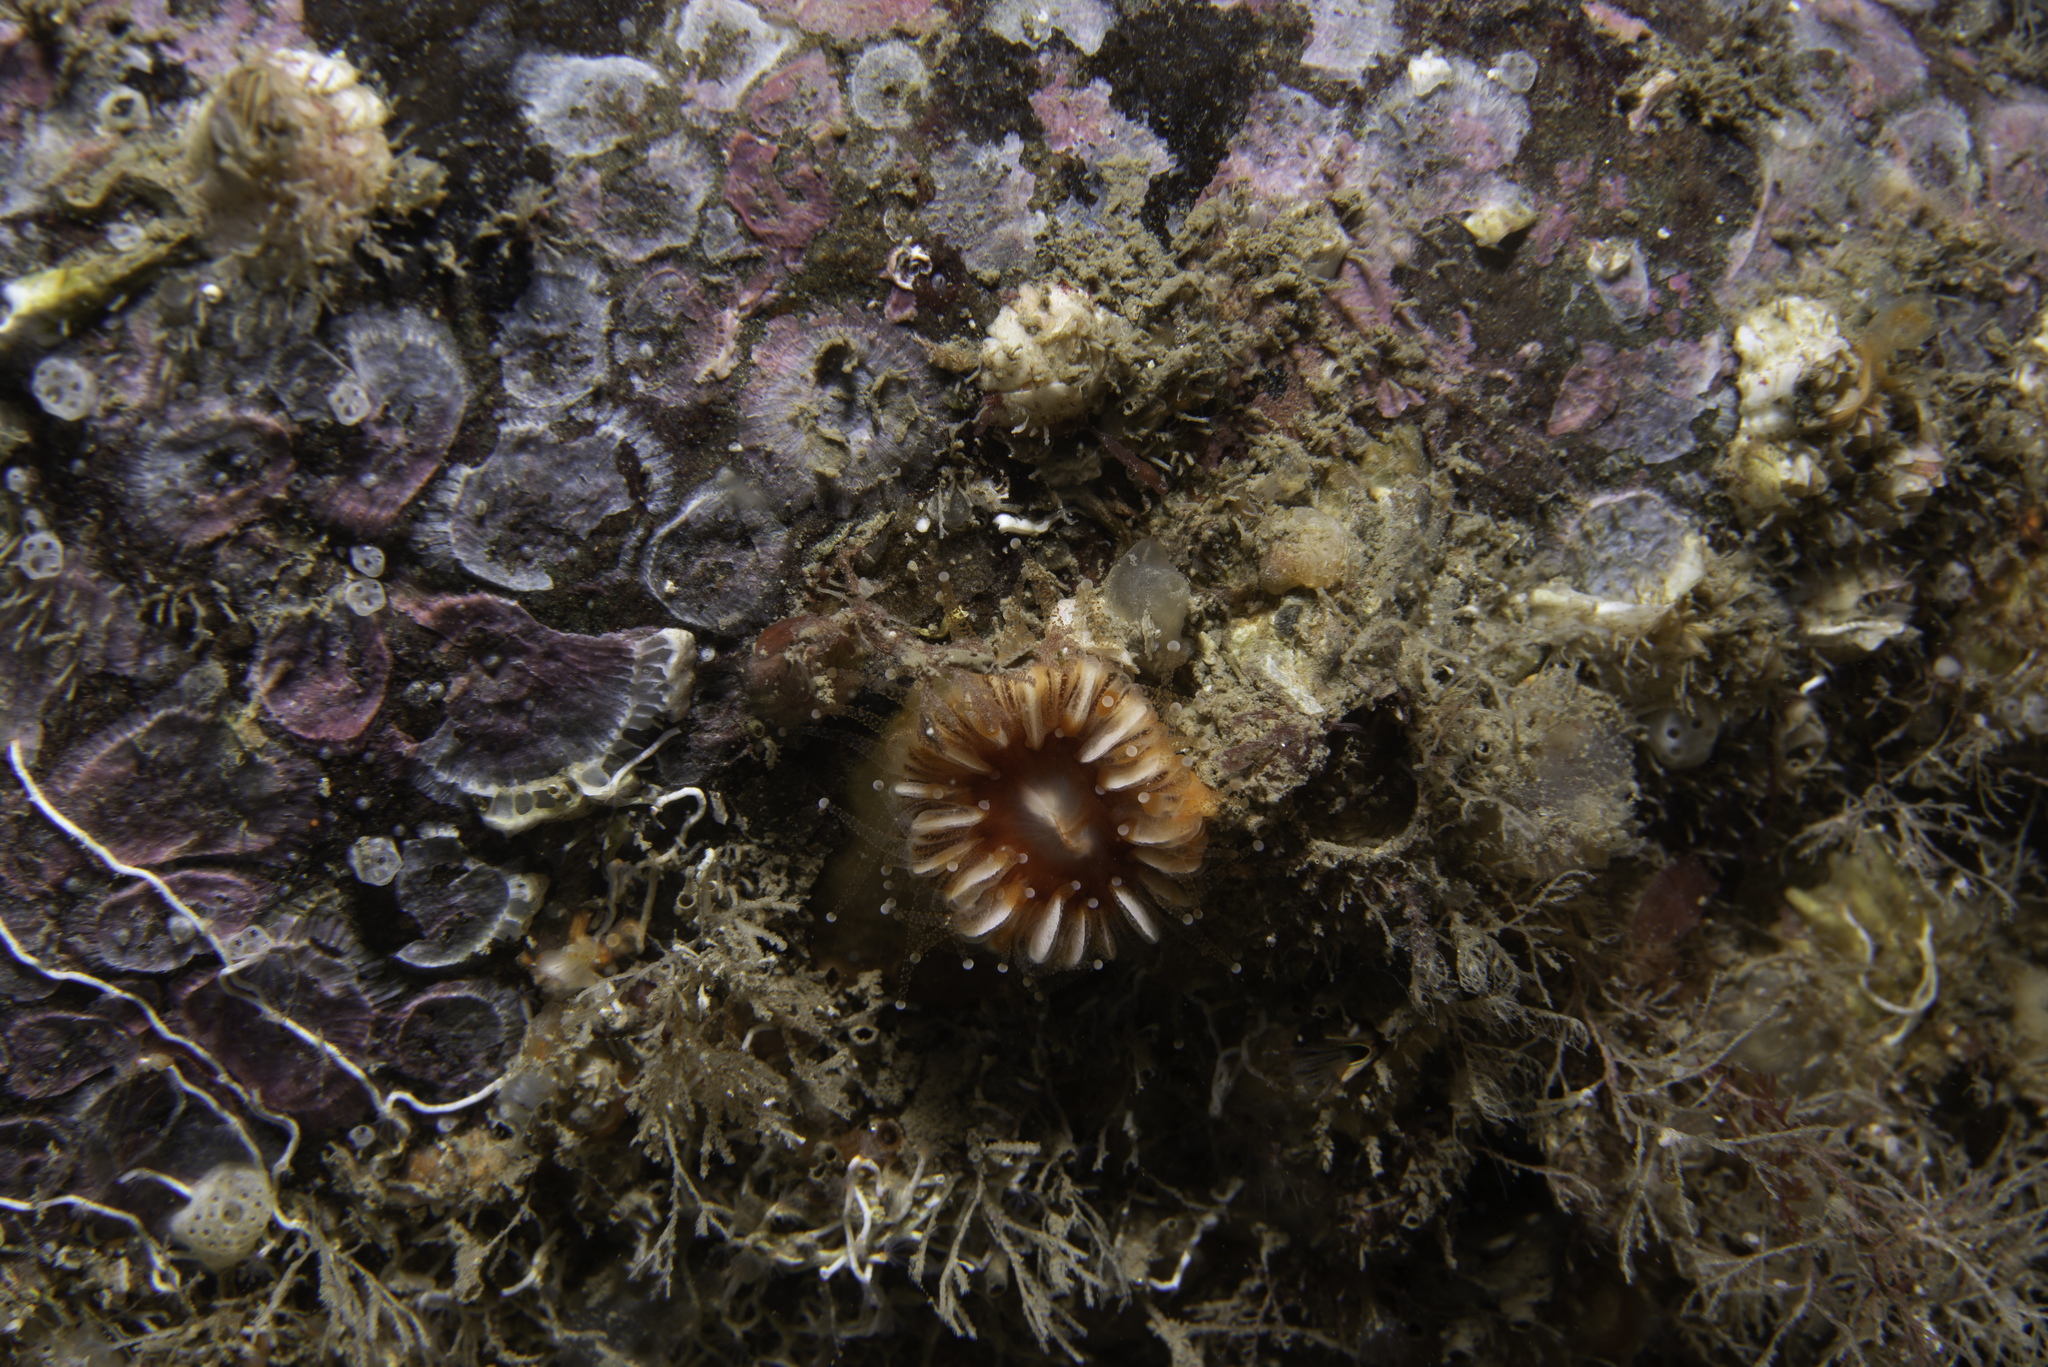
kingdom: Animalia
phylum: Cnidaria
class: Anthozoa
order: Scleractinia
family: Caryophylliidae
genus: Caryophyllia
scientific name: Caryophyllia smithii
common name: Devonshire cup coral
